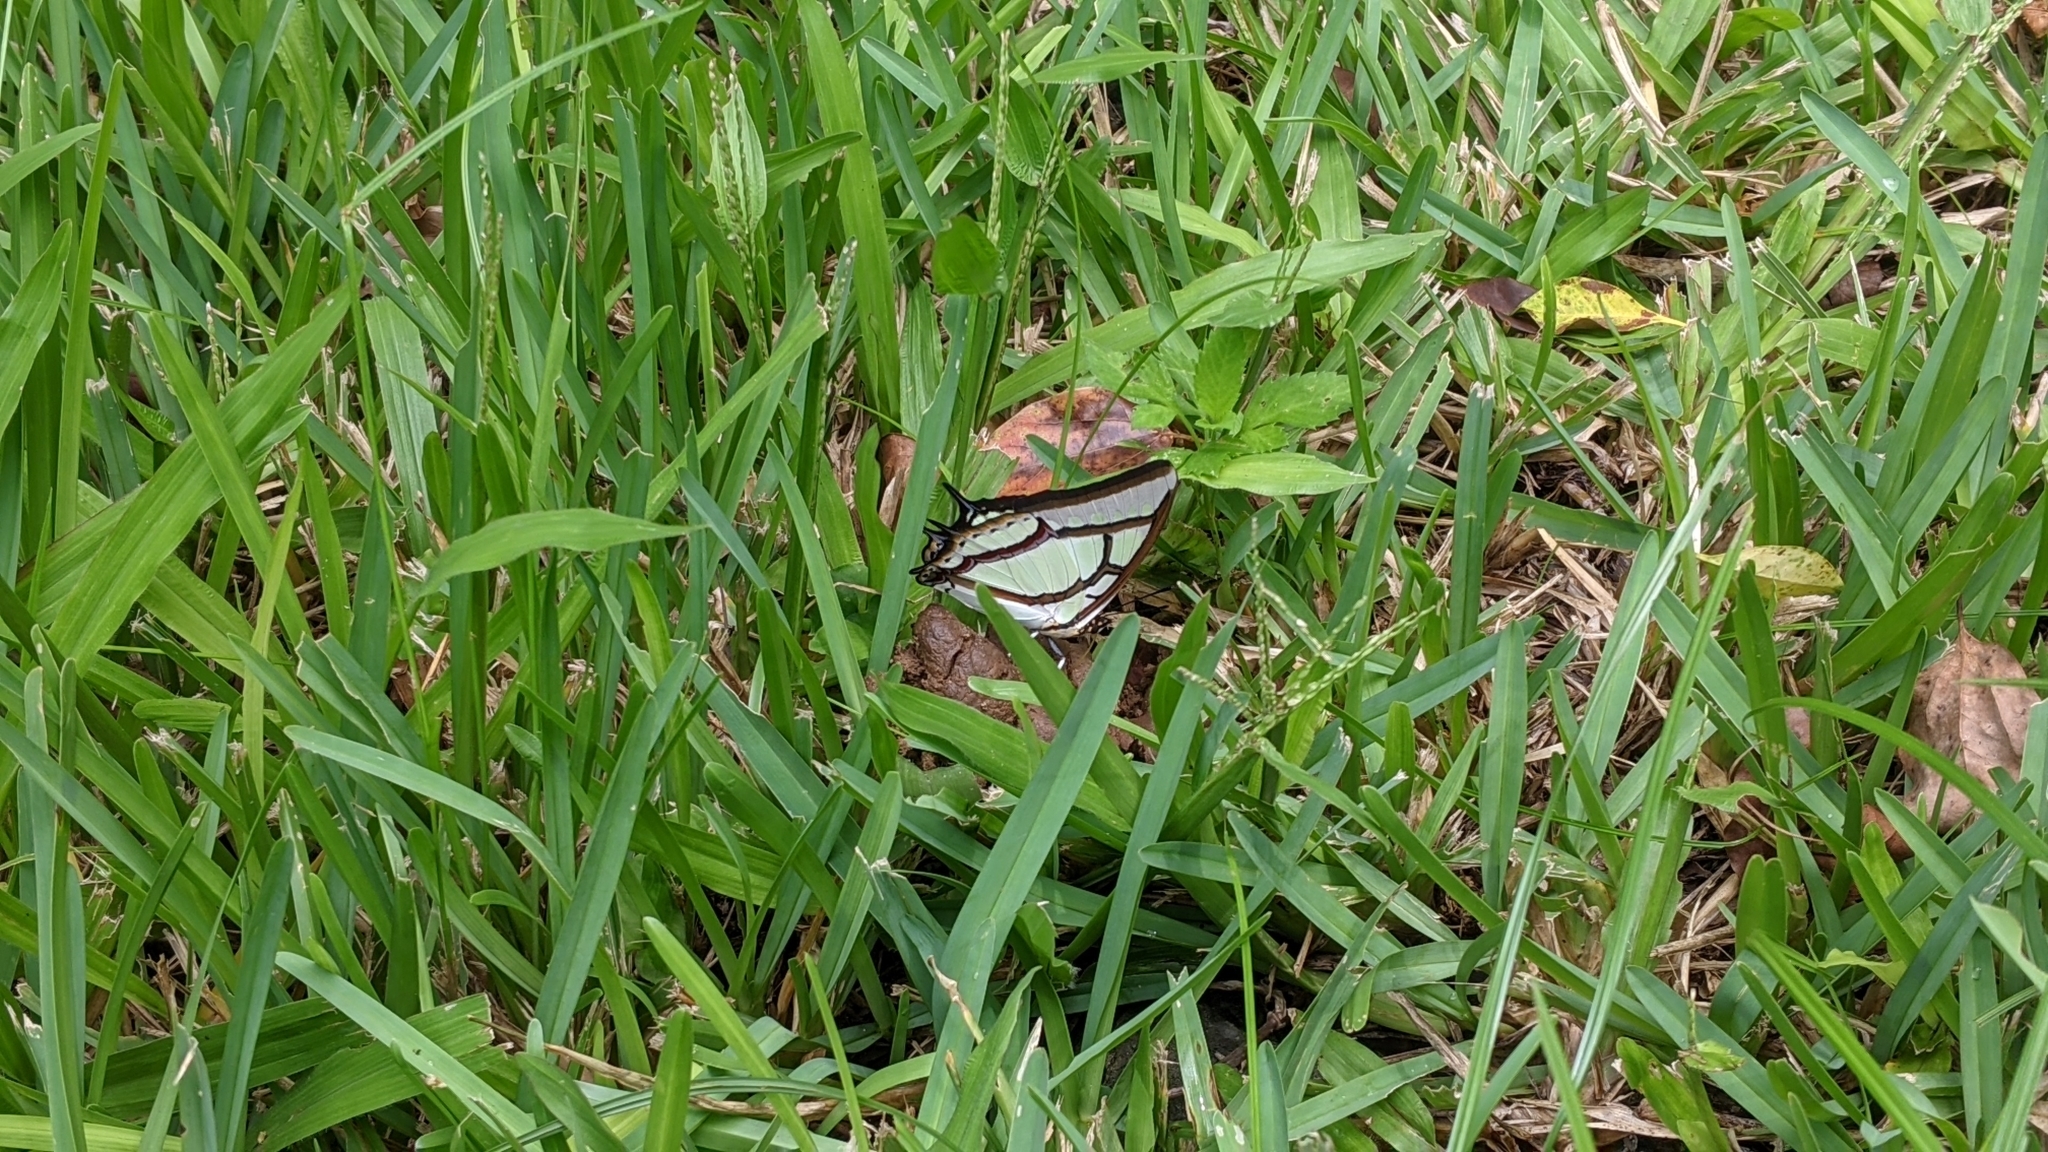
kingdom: Animalia
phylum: Arthropoda
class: Insecta
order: Lepidoptera
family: Nymphalidae
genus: Charaxes
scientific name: Charaxes narcaea
